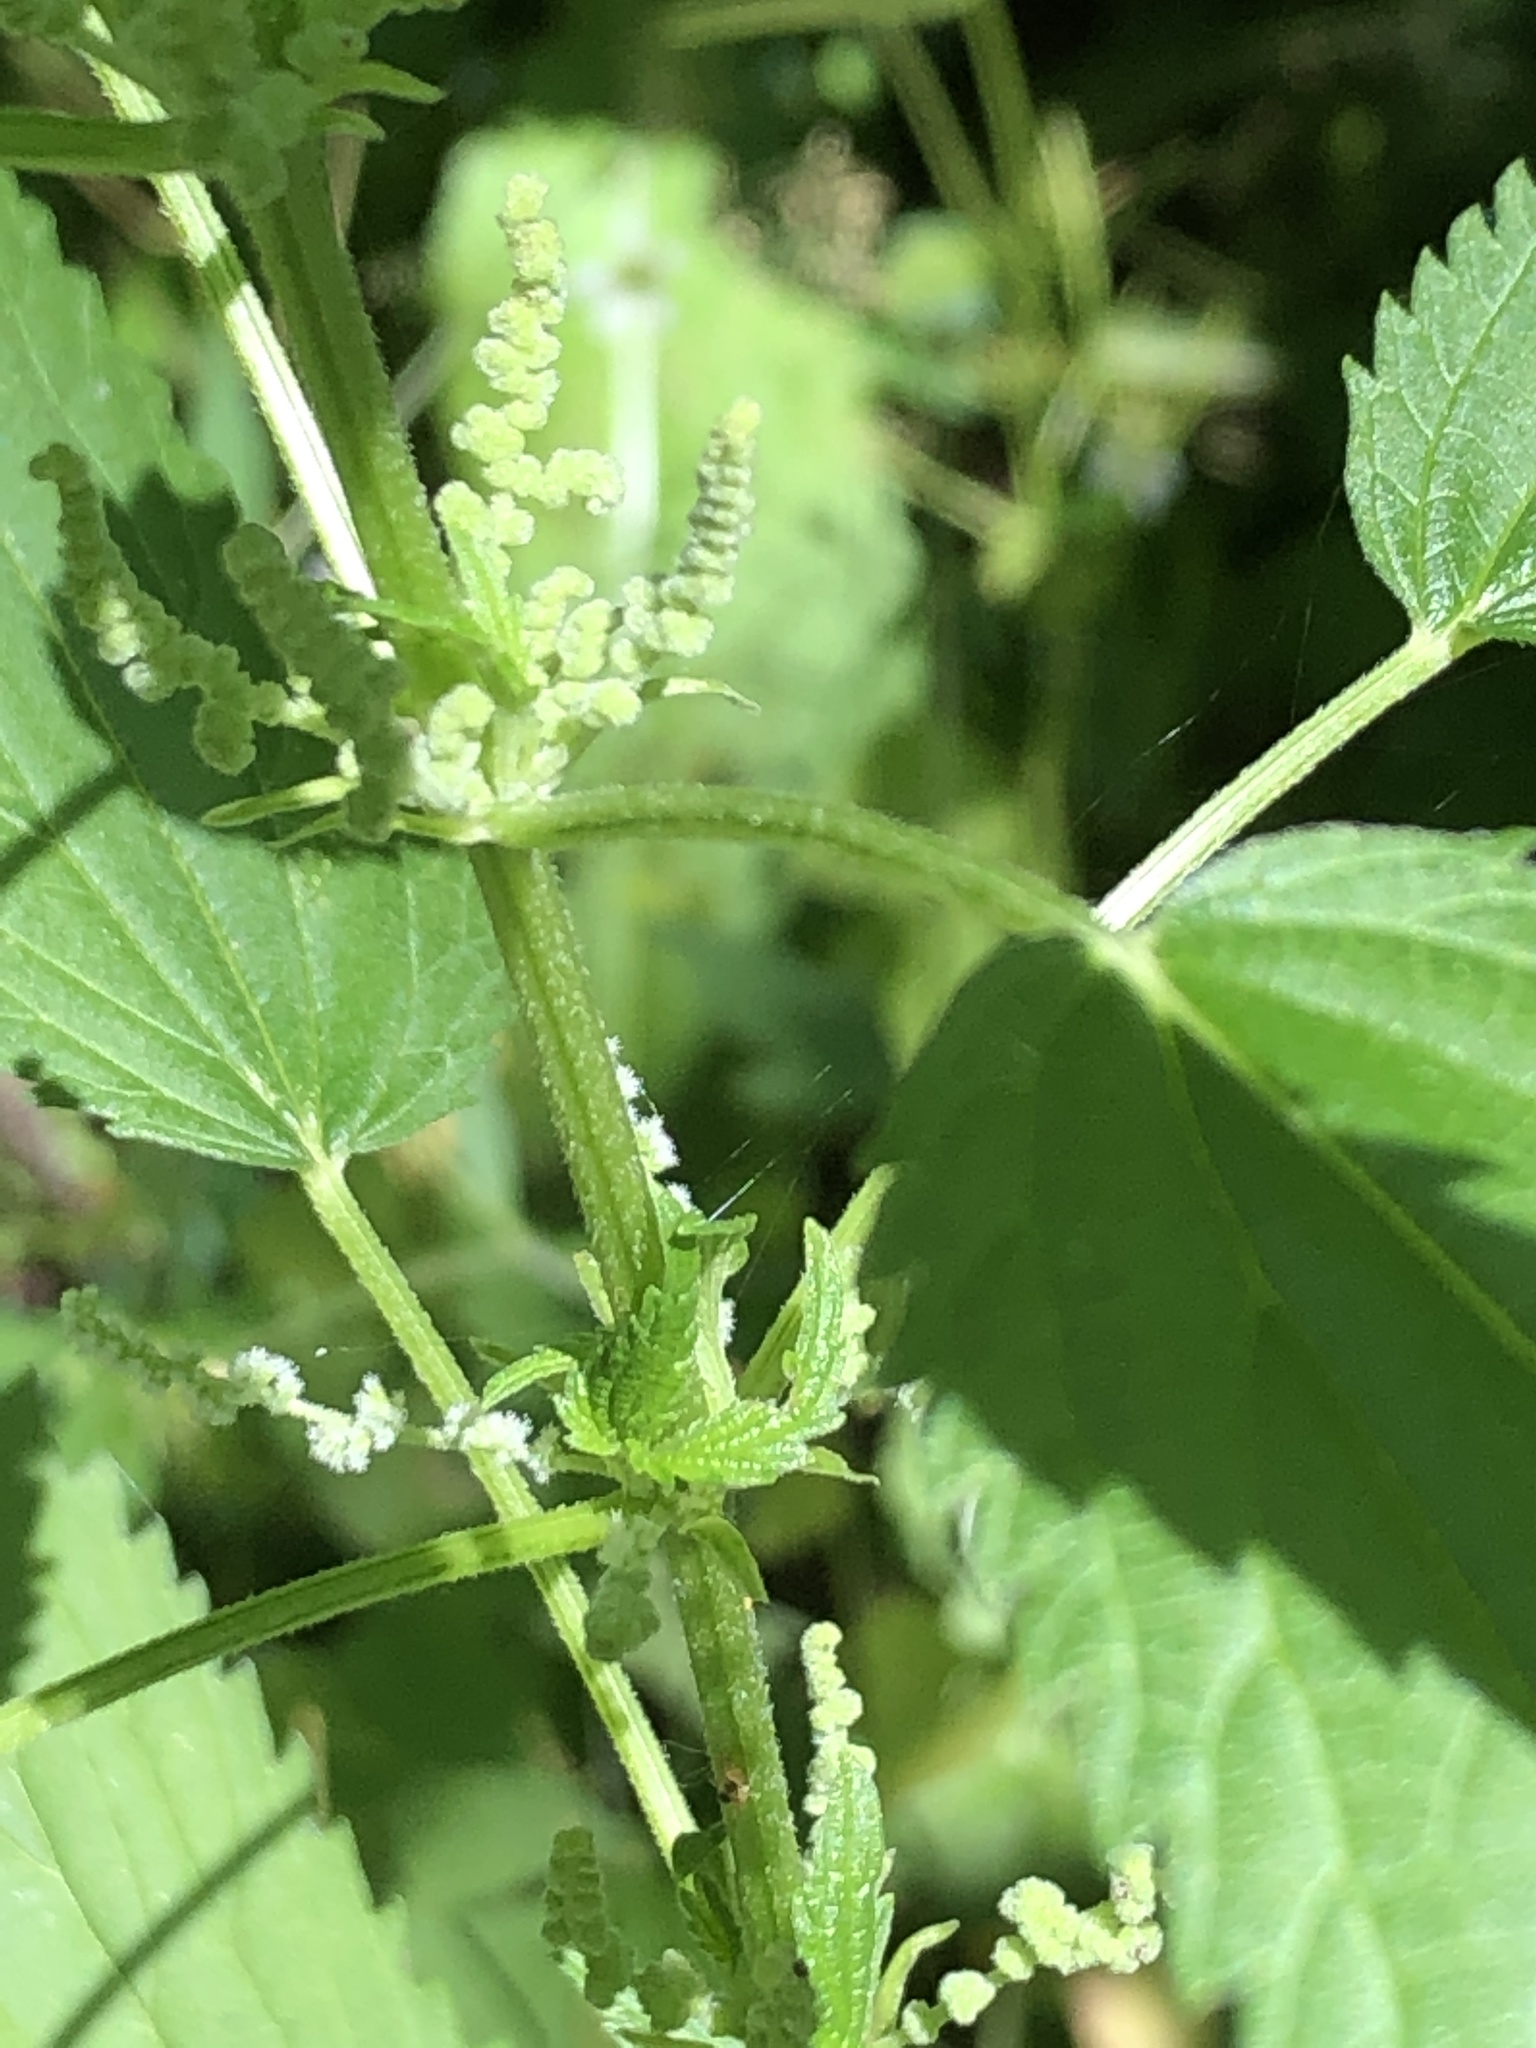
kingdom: Plantae
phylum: Tracheophyta
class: Magnoliopsida
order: Rosales
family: Urticaceae
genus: Urtica
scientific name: Urtica dioica
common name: Common nettle
